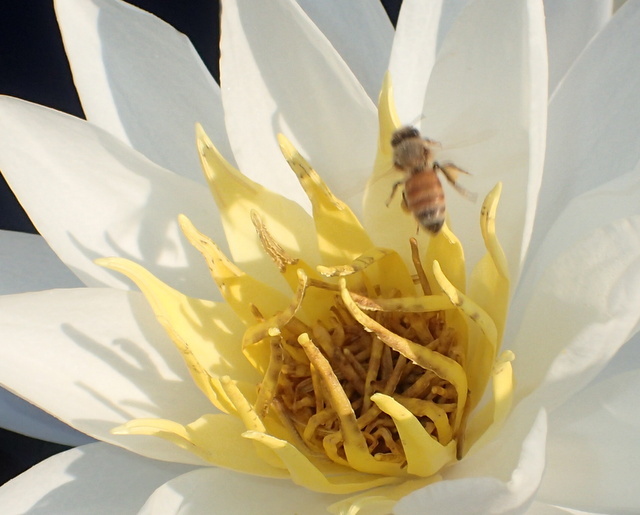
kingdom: Animalia
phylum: Arthropoda
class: Insecta
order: Hymenoptera
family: Apidae
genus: Apis
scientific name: Apis mellifera
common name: Honey bee
